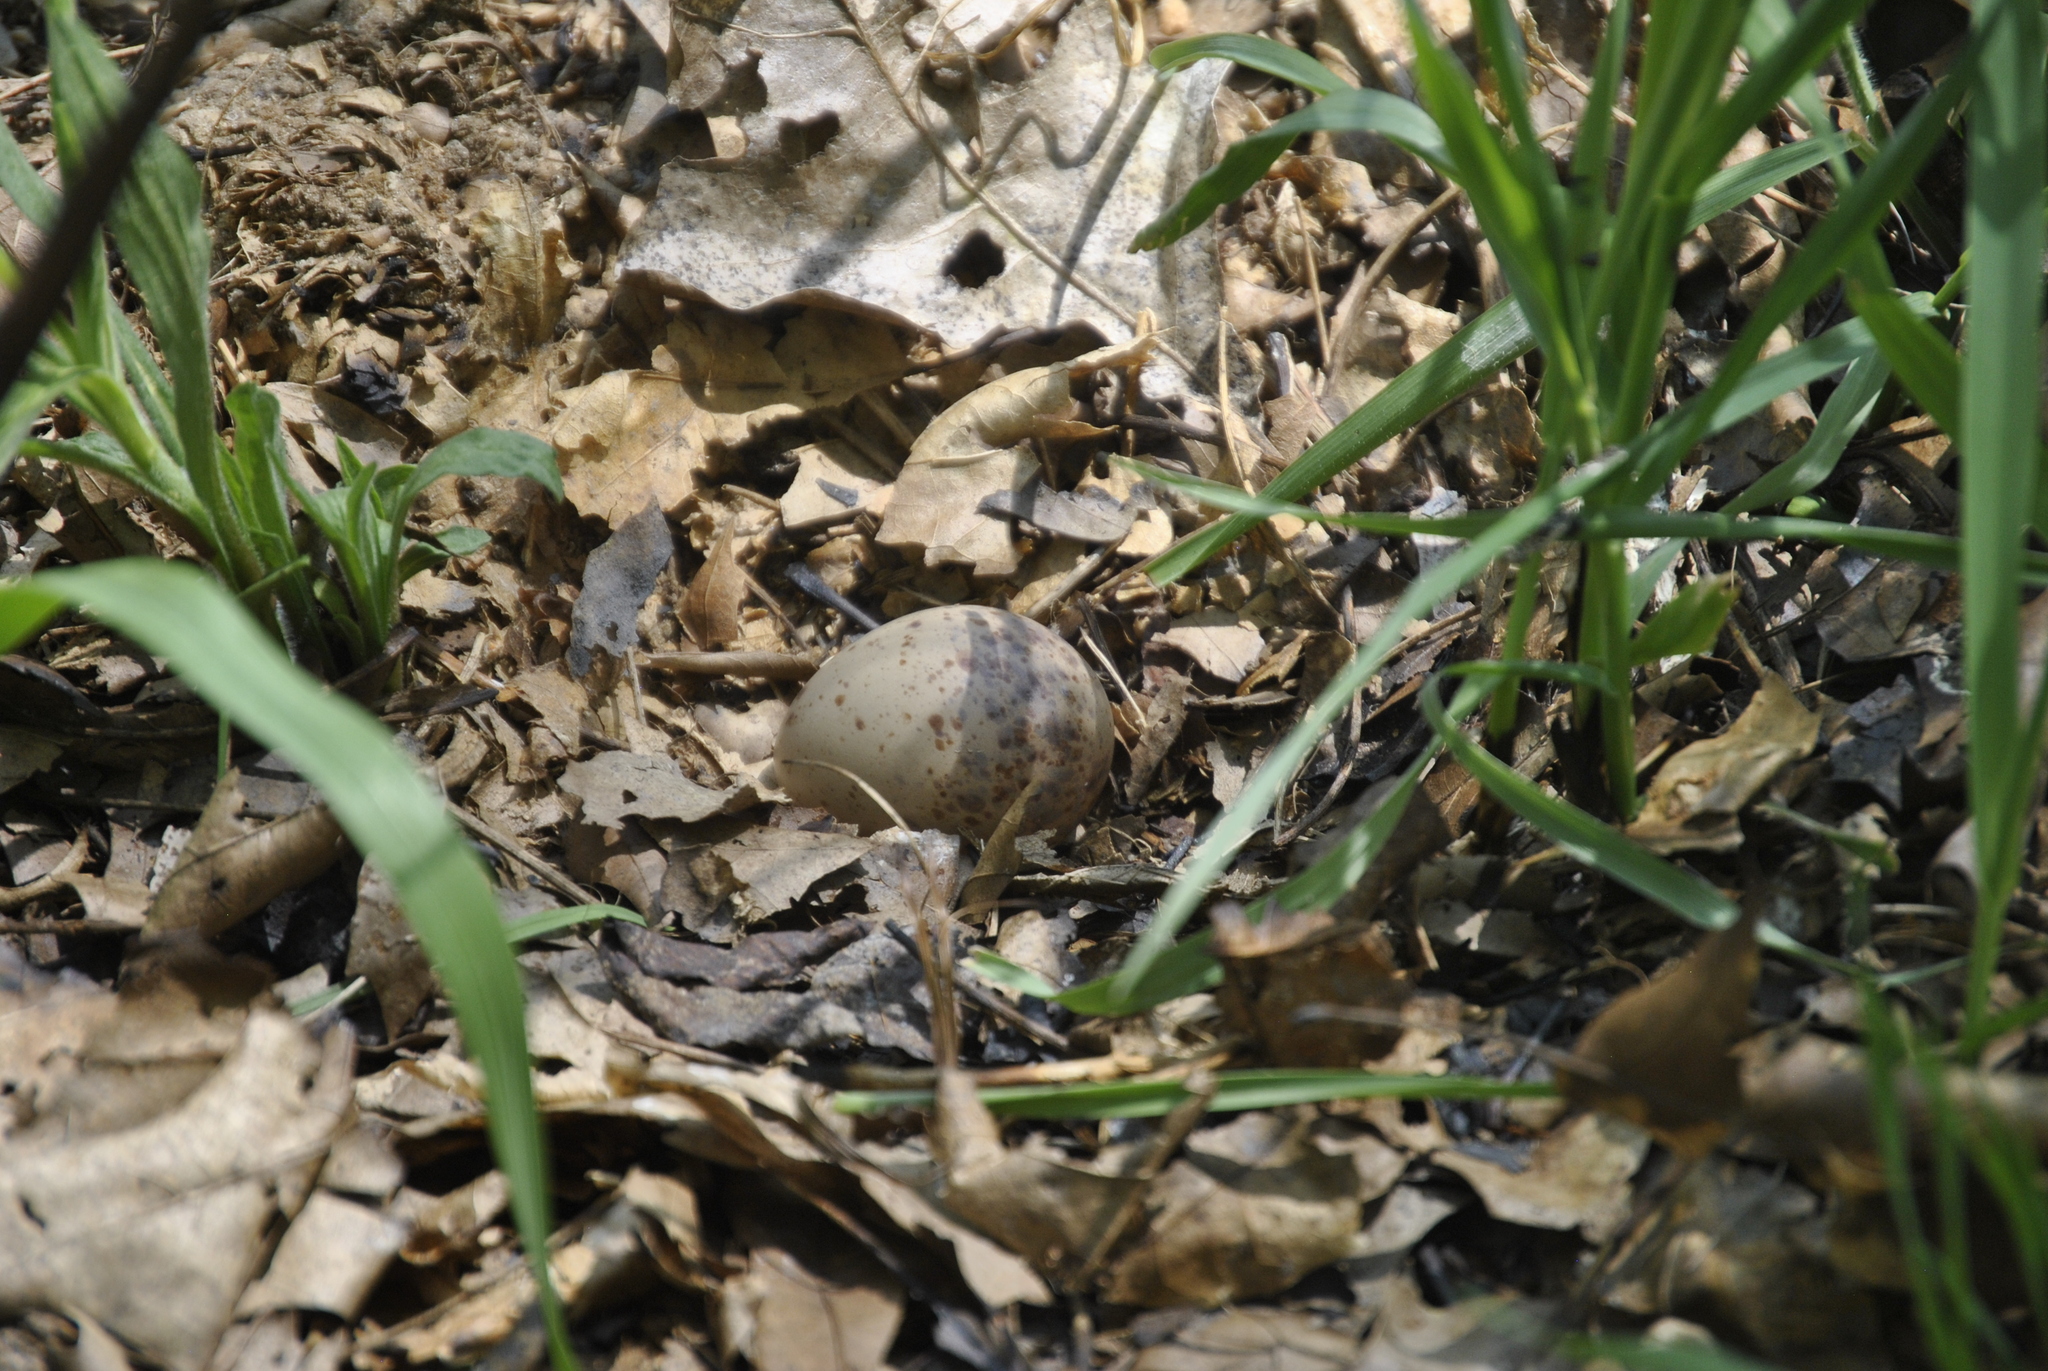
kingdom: Animalia
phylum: Chordata
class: Aves
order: Charadriiformes
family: Scolopacidae
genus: Scolopax
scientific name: Scolopax minor
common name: American woodcock
